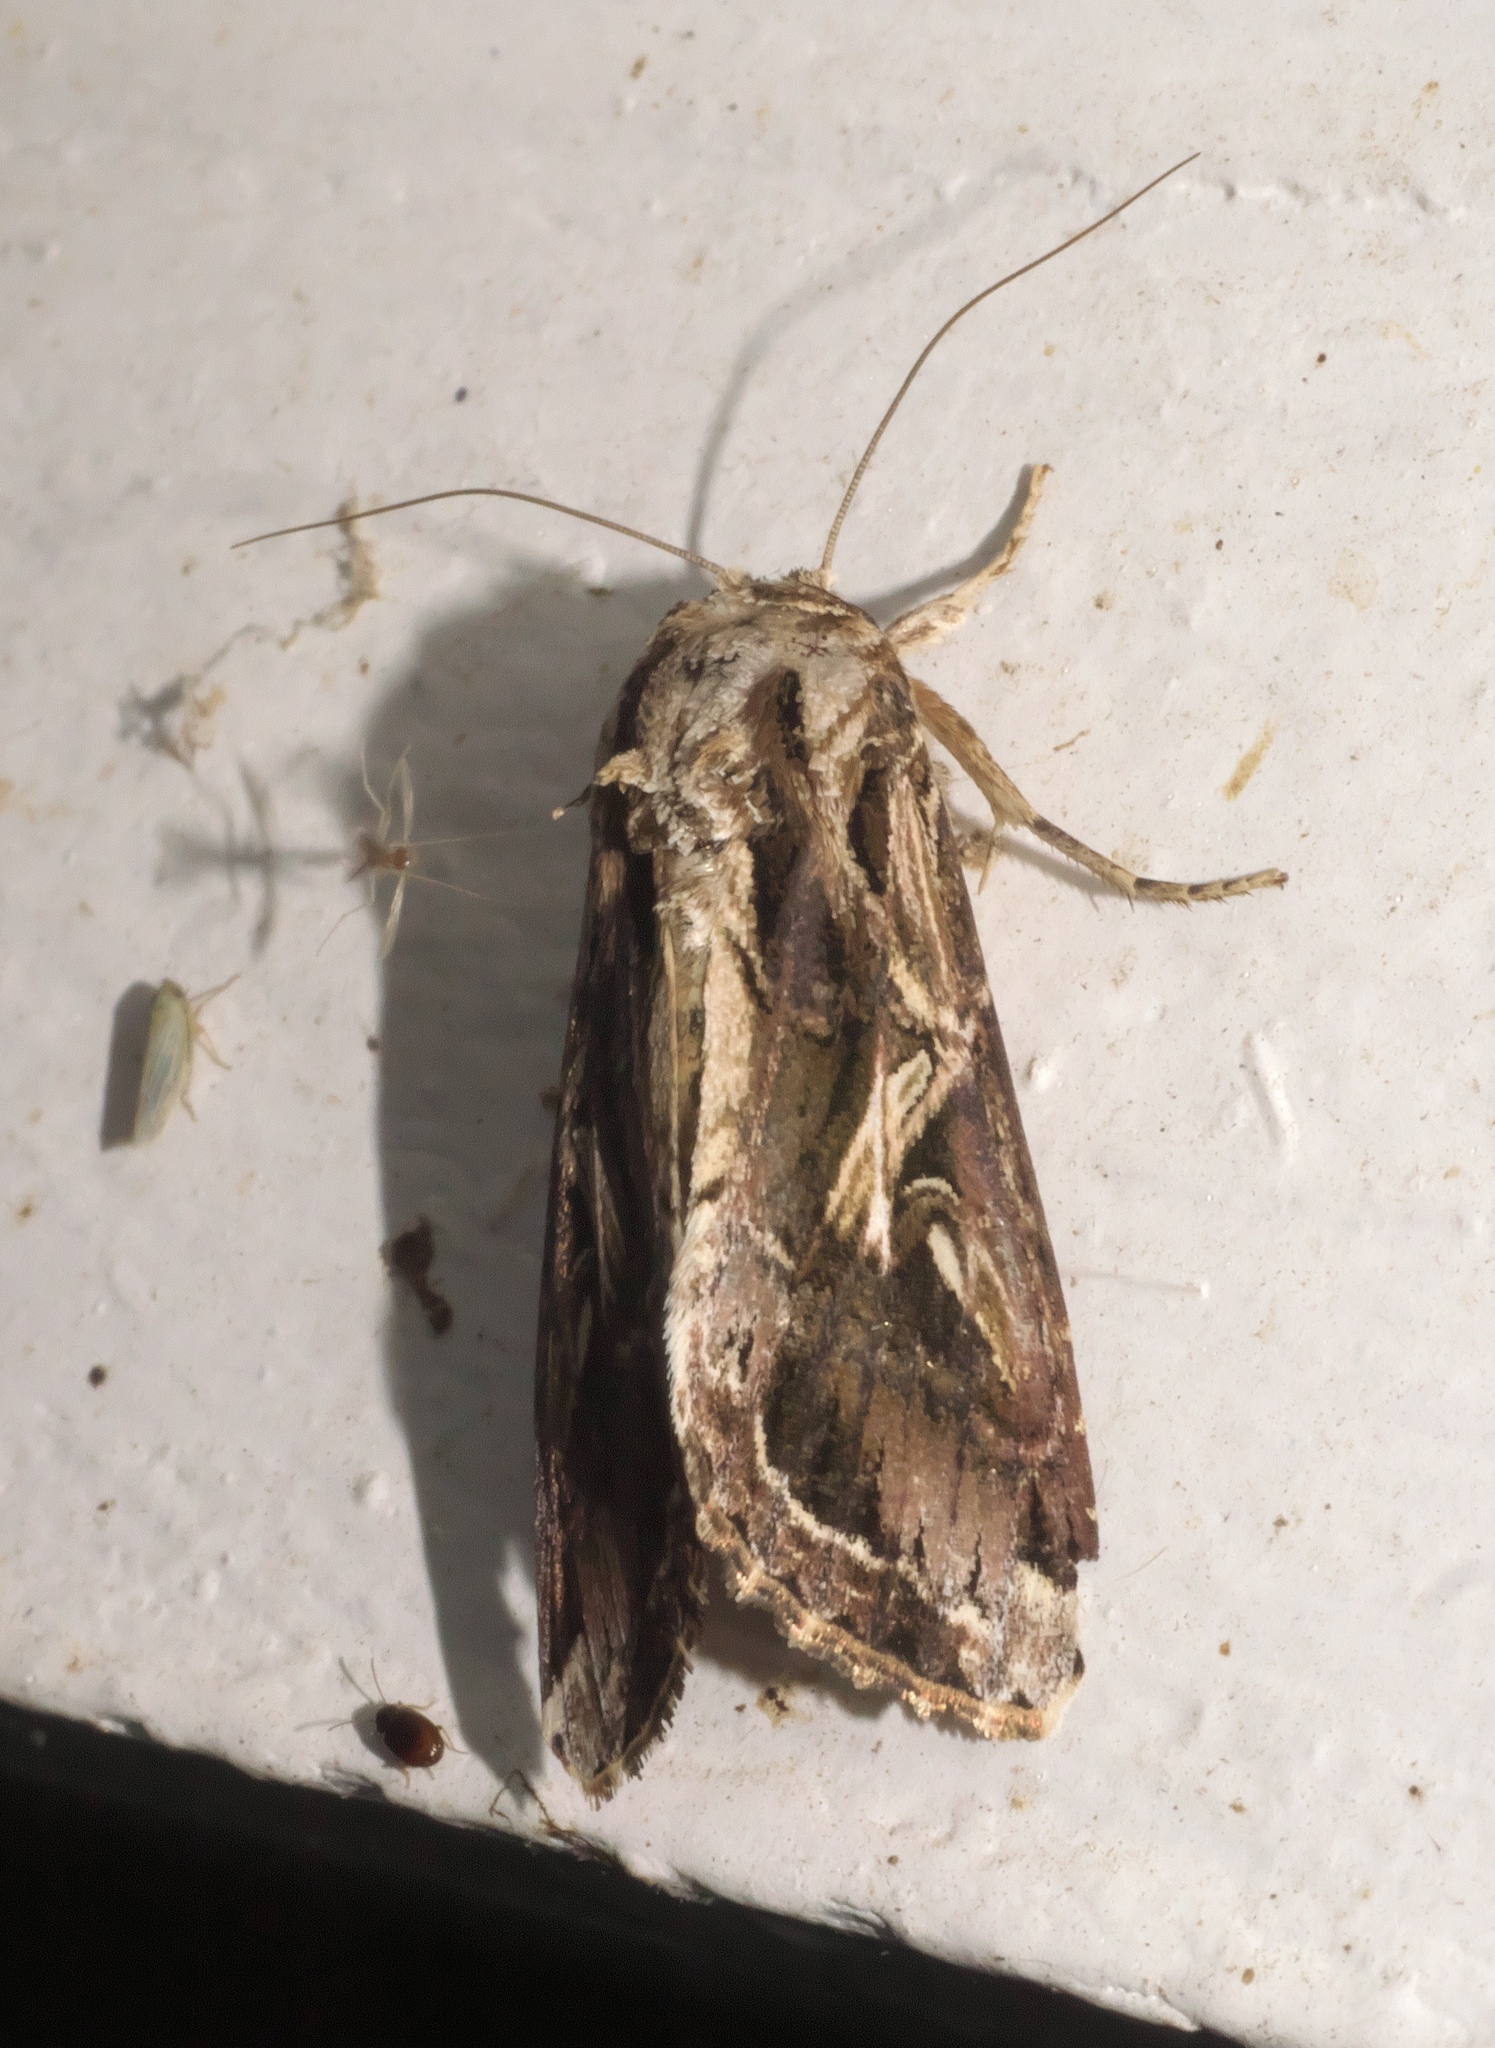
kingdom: Animalia
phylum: Arthropoda
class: Insecta
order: Lepidoptera
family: Noctuidae
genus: Spodoptera
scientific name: Spodoptera dolichos
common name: Sweetpotato armyworm
